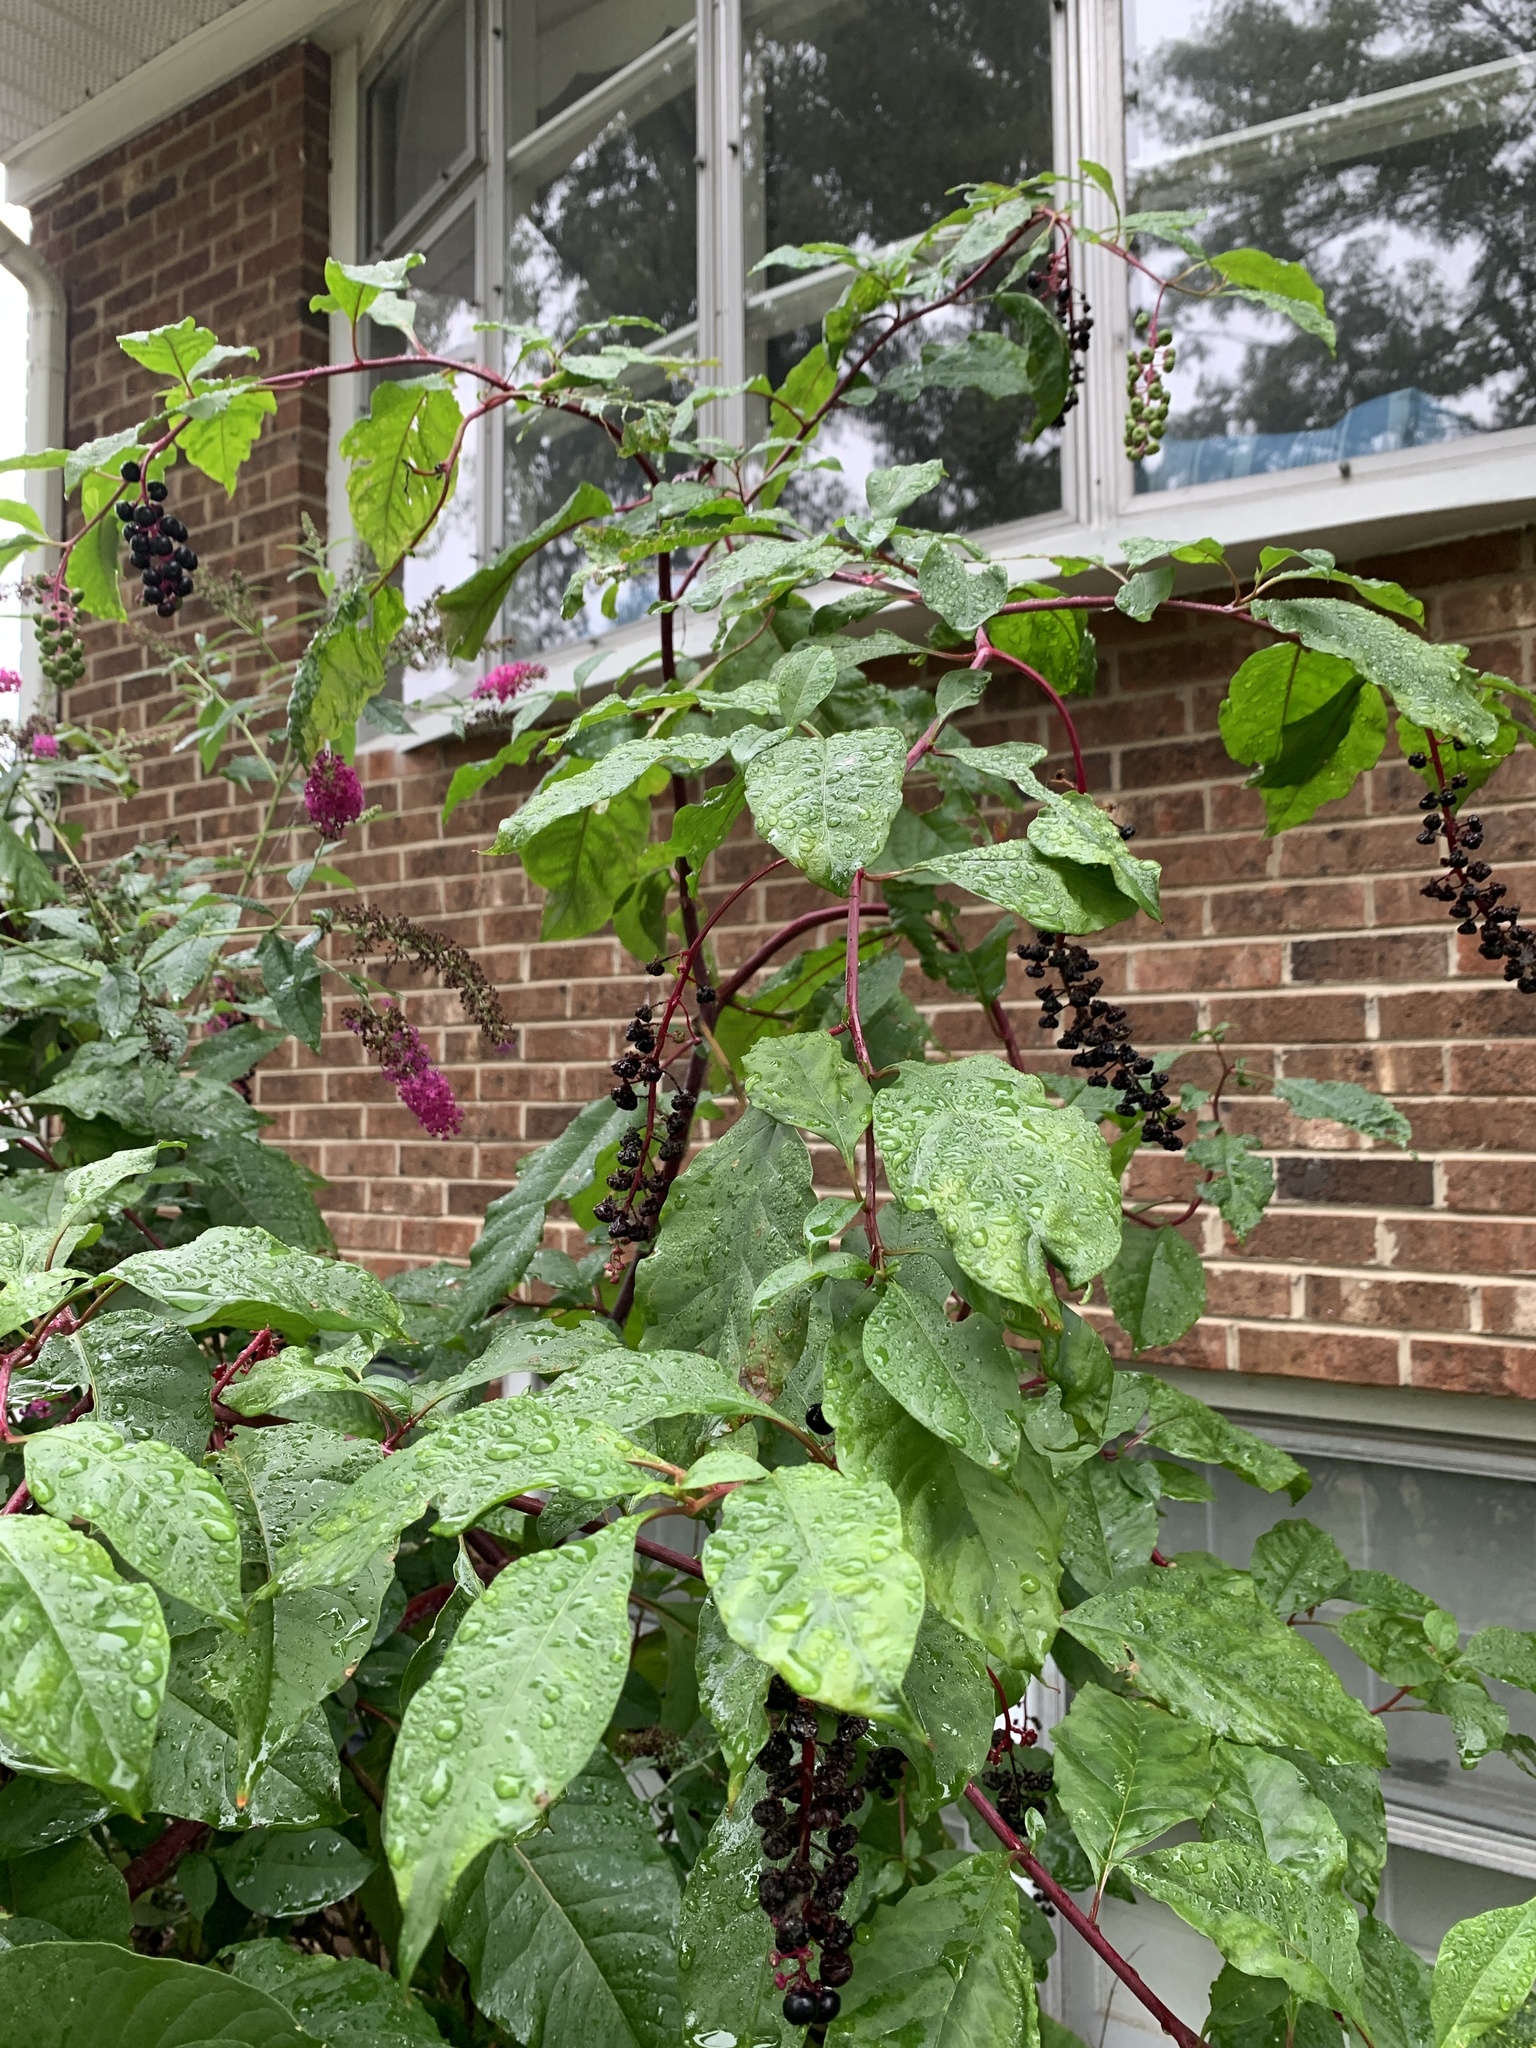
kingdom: Plantae
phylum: Tracheophyta
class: Magnoliopsida
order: Caryophyllales
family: Phytolaccaceae
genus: Phytolacca
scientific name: Phytolacca americana
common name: American pokeweed
